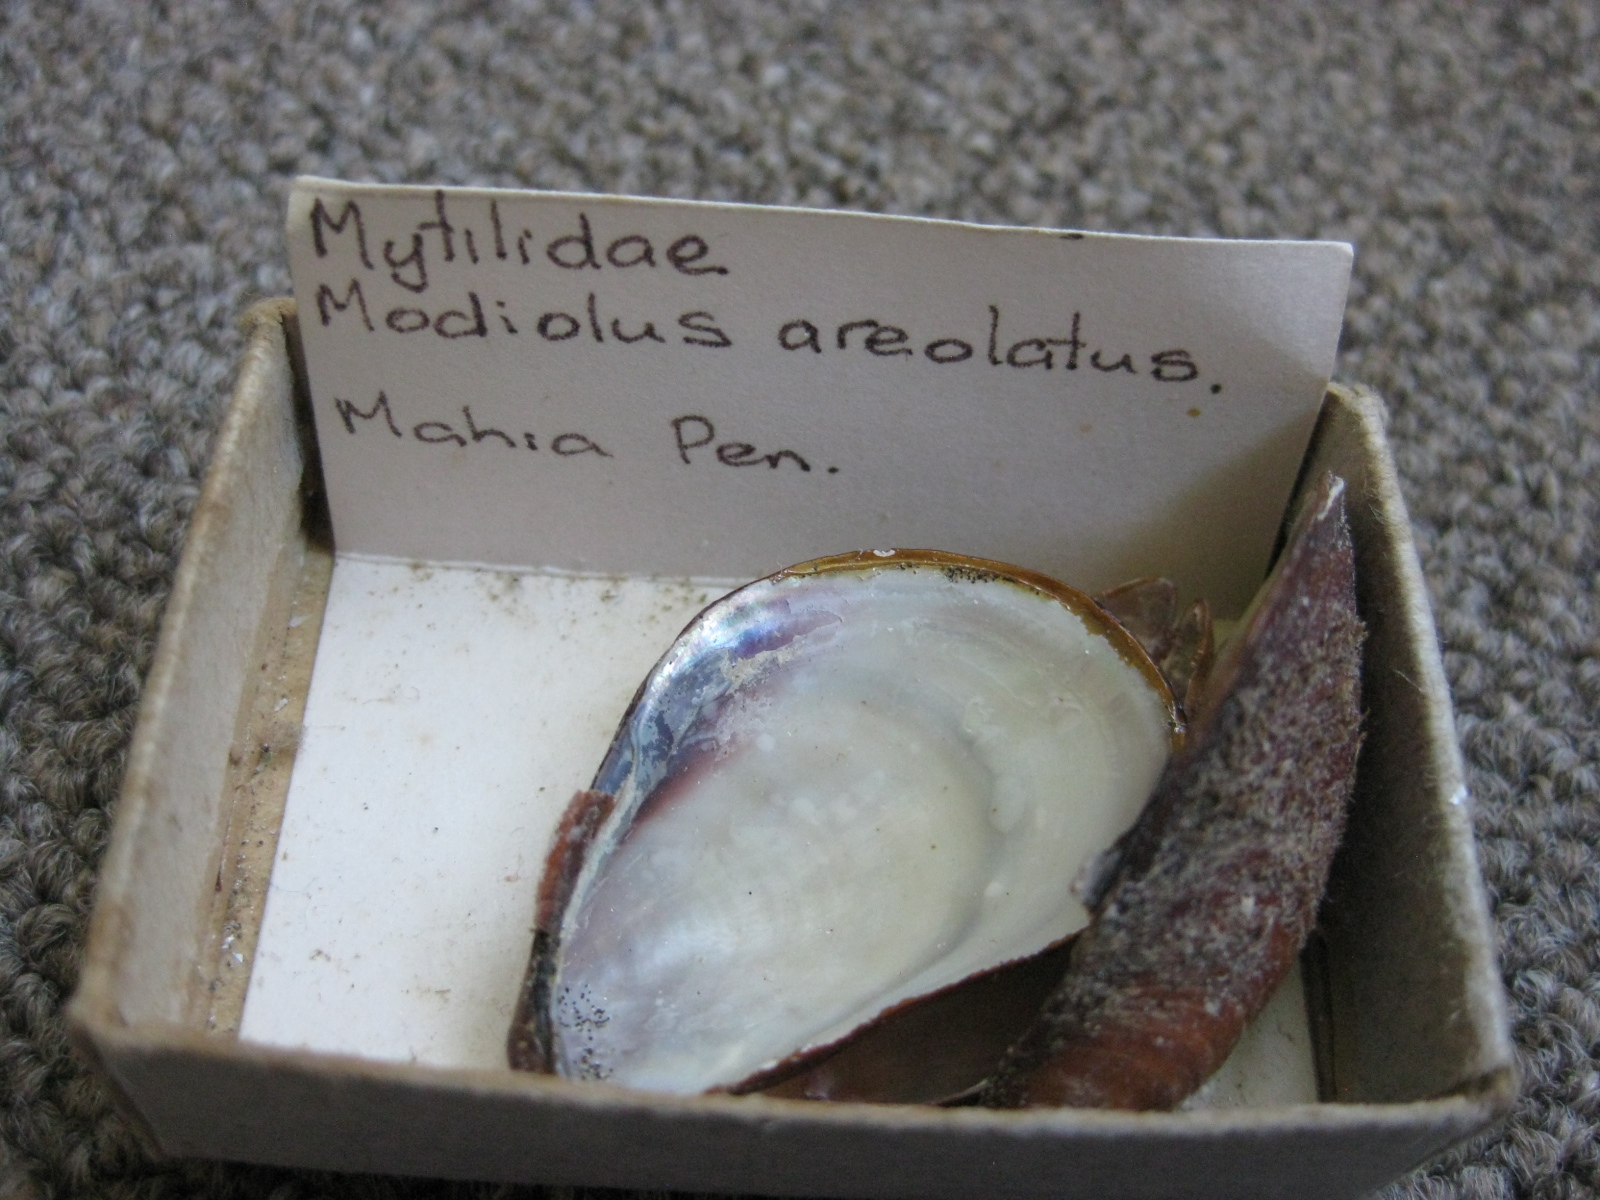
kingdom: Animalia
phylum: Mollusca
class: Bivalvia
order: Mytilida
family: Mytilidae
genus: Modiolus
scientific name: Modiolus areolatus
